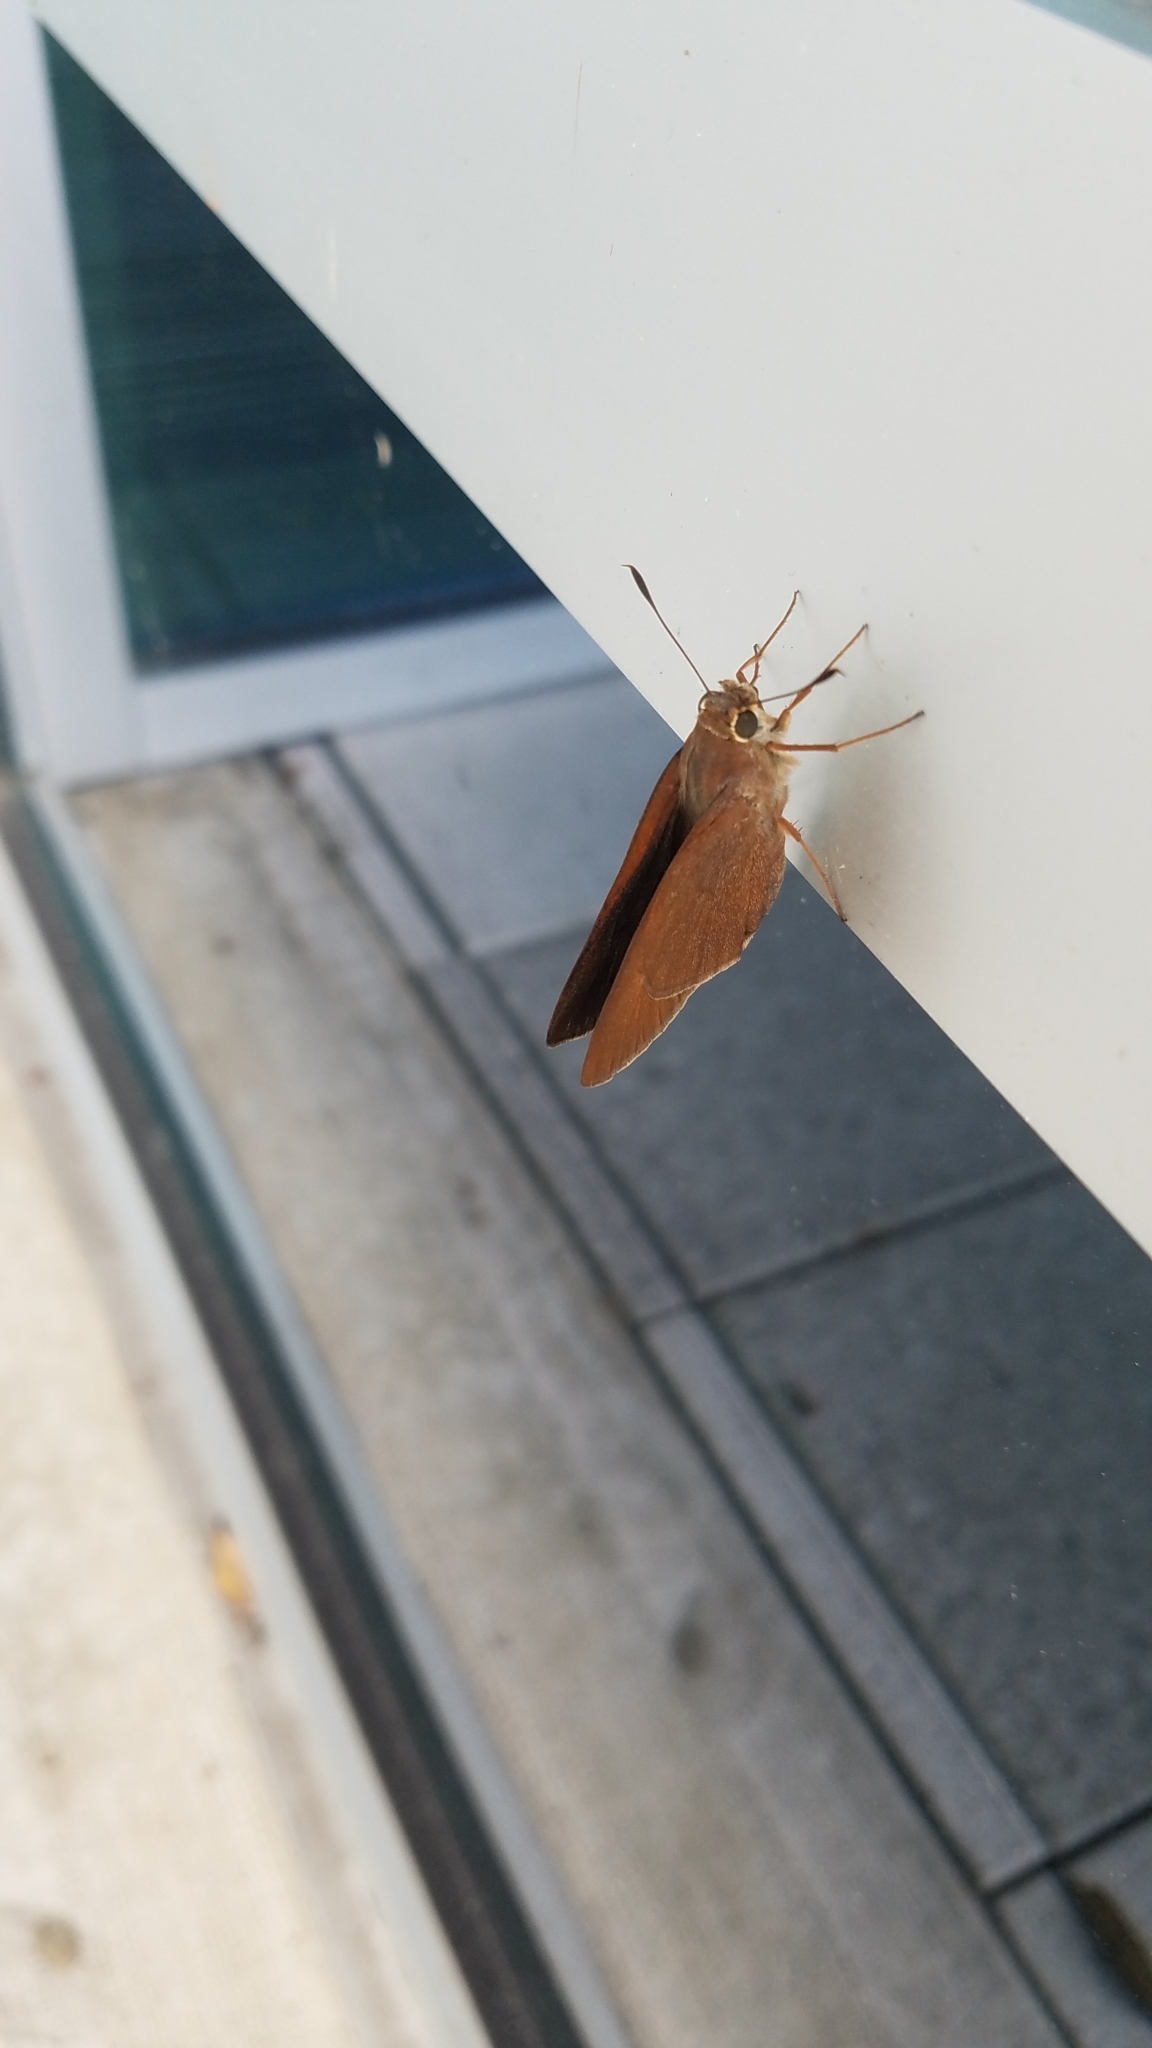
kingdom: Animalia
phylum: Arthropoda
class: Insecta
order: Lepidoptera
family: Hesperiidae
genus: Asbolis
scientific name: Asbolis capucinus
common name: Monk skipper
